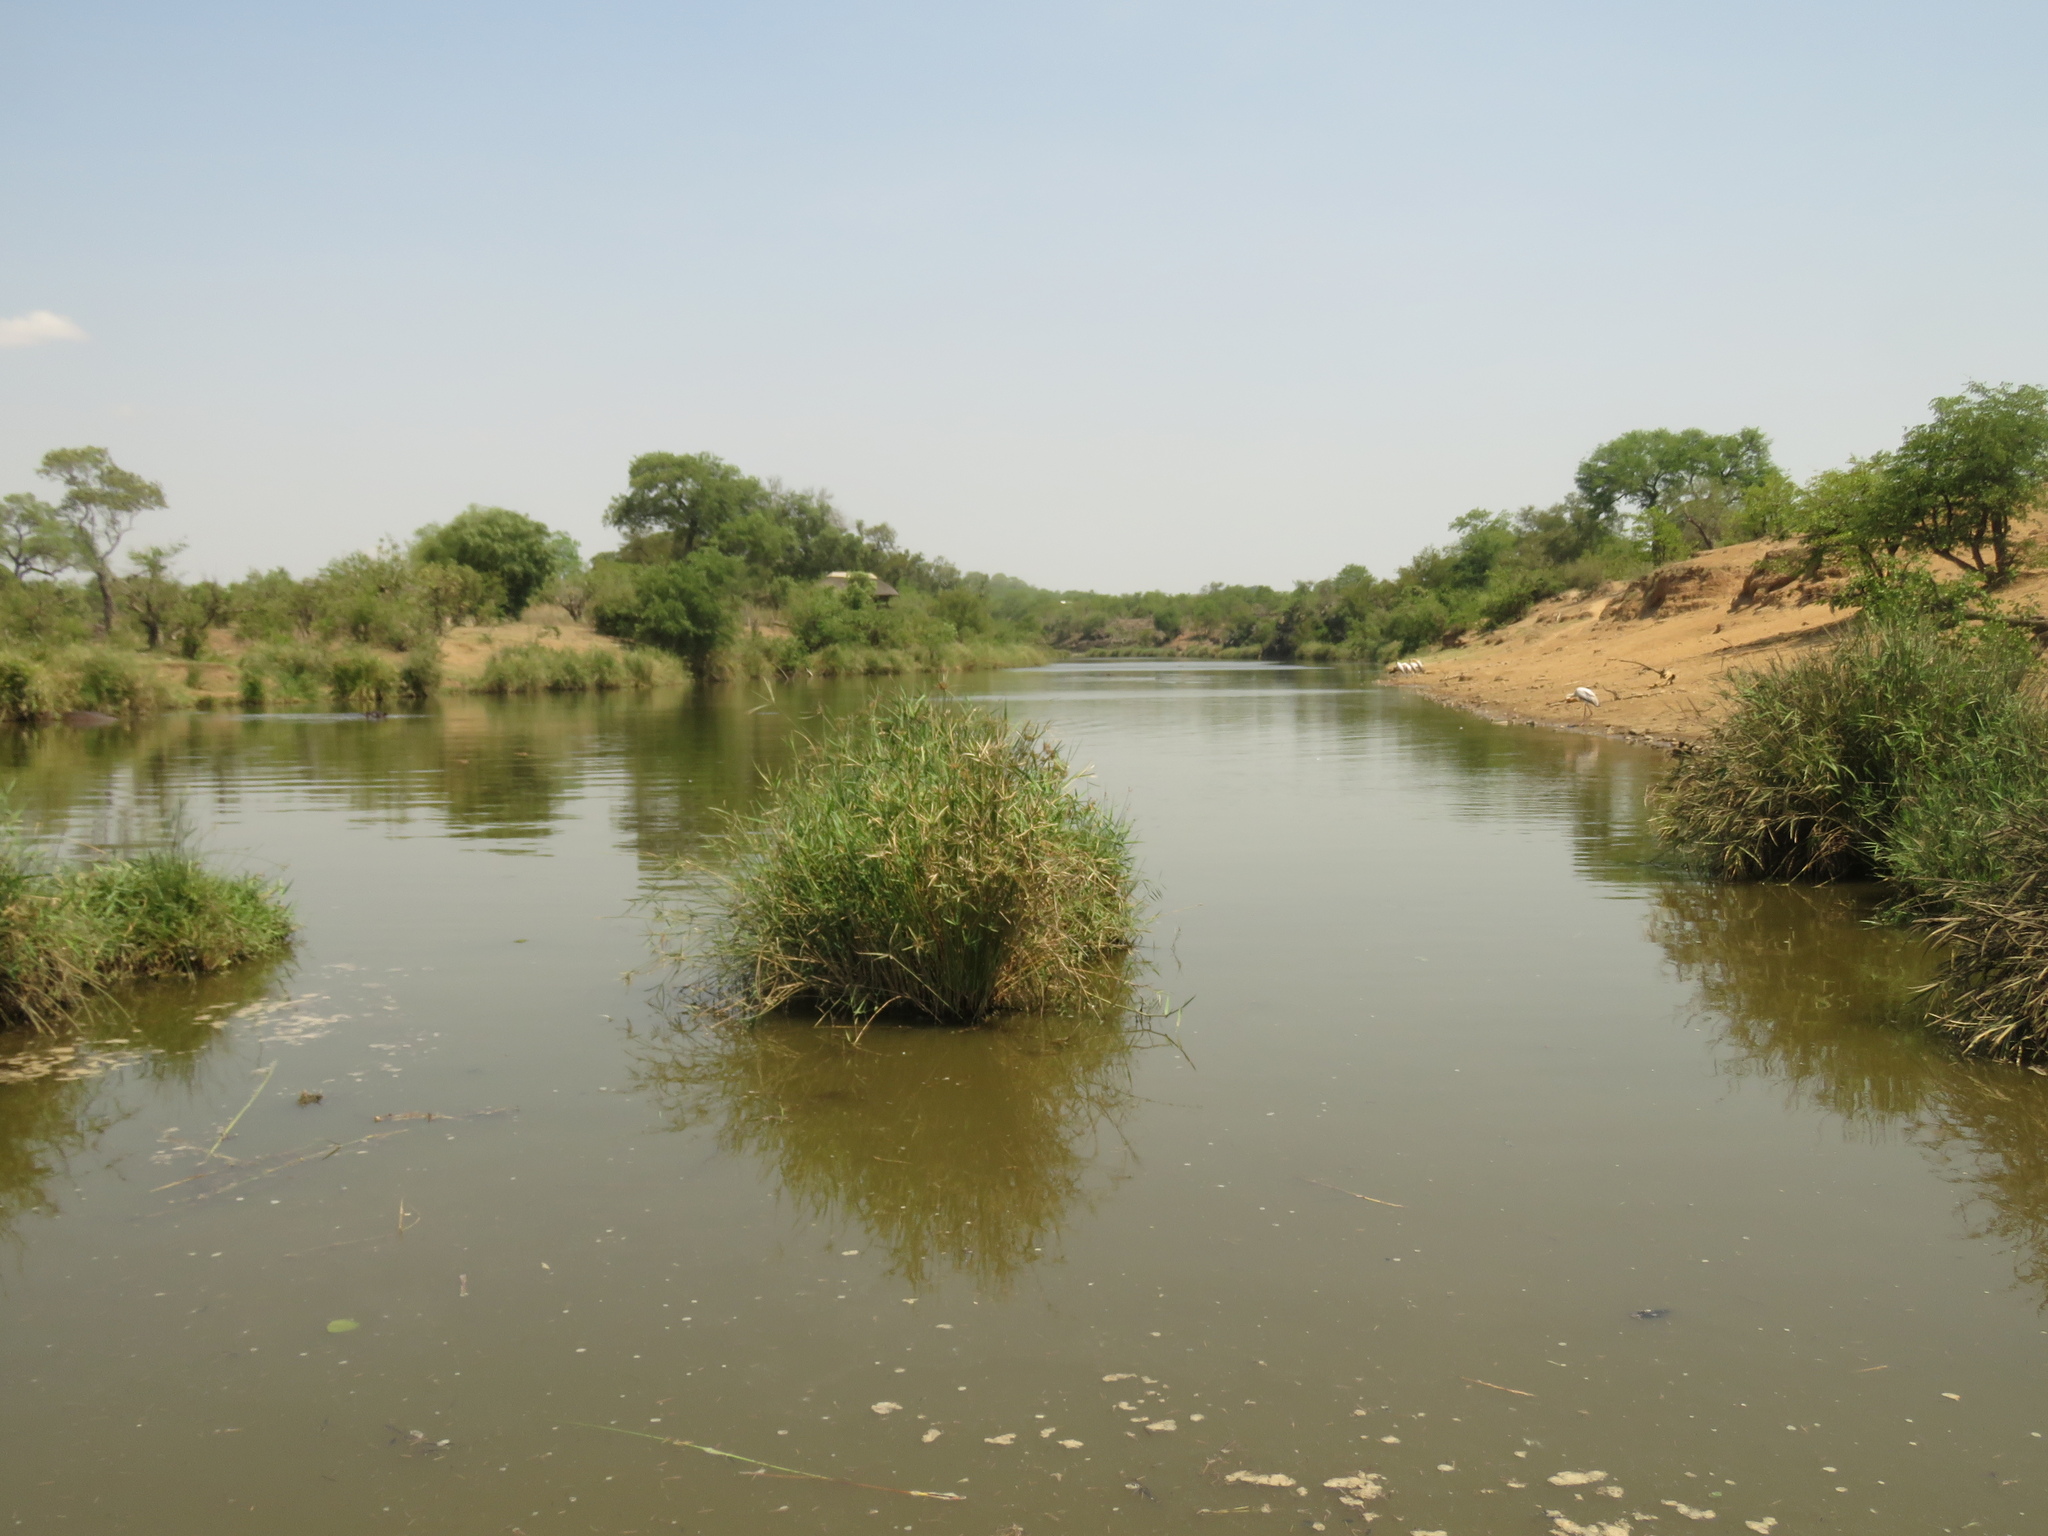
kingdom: Plantae
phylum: Tracheophyta
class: Liliopsida
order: Poales
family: Cyperaceae
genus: Cyperus
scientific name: Cyperus textilis
